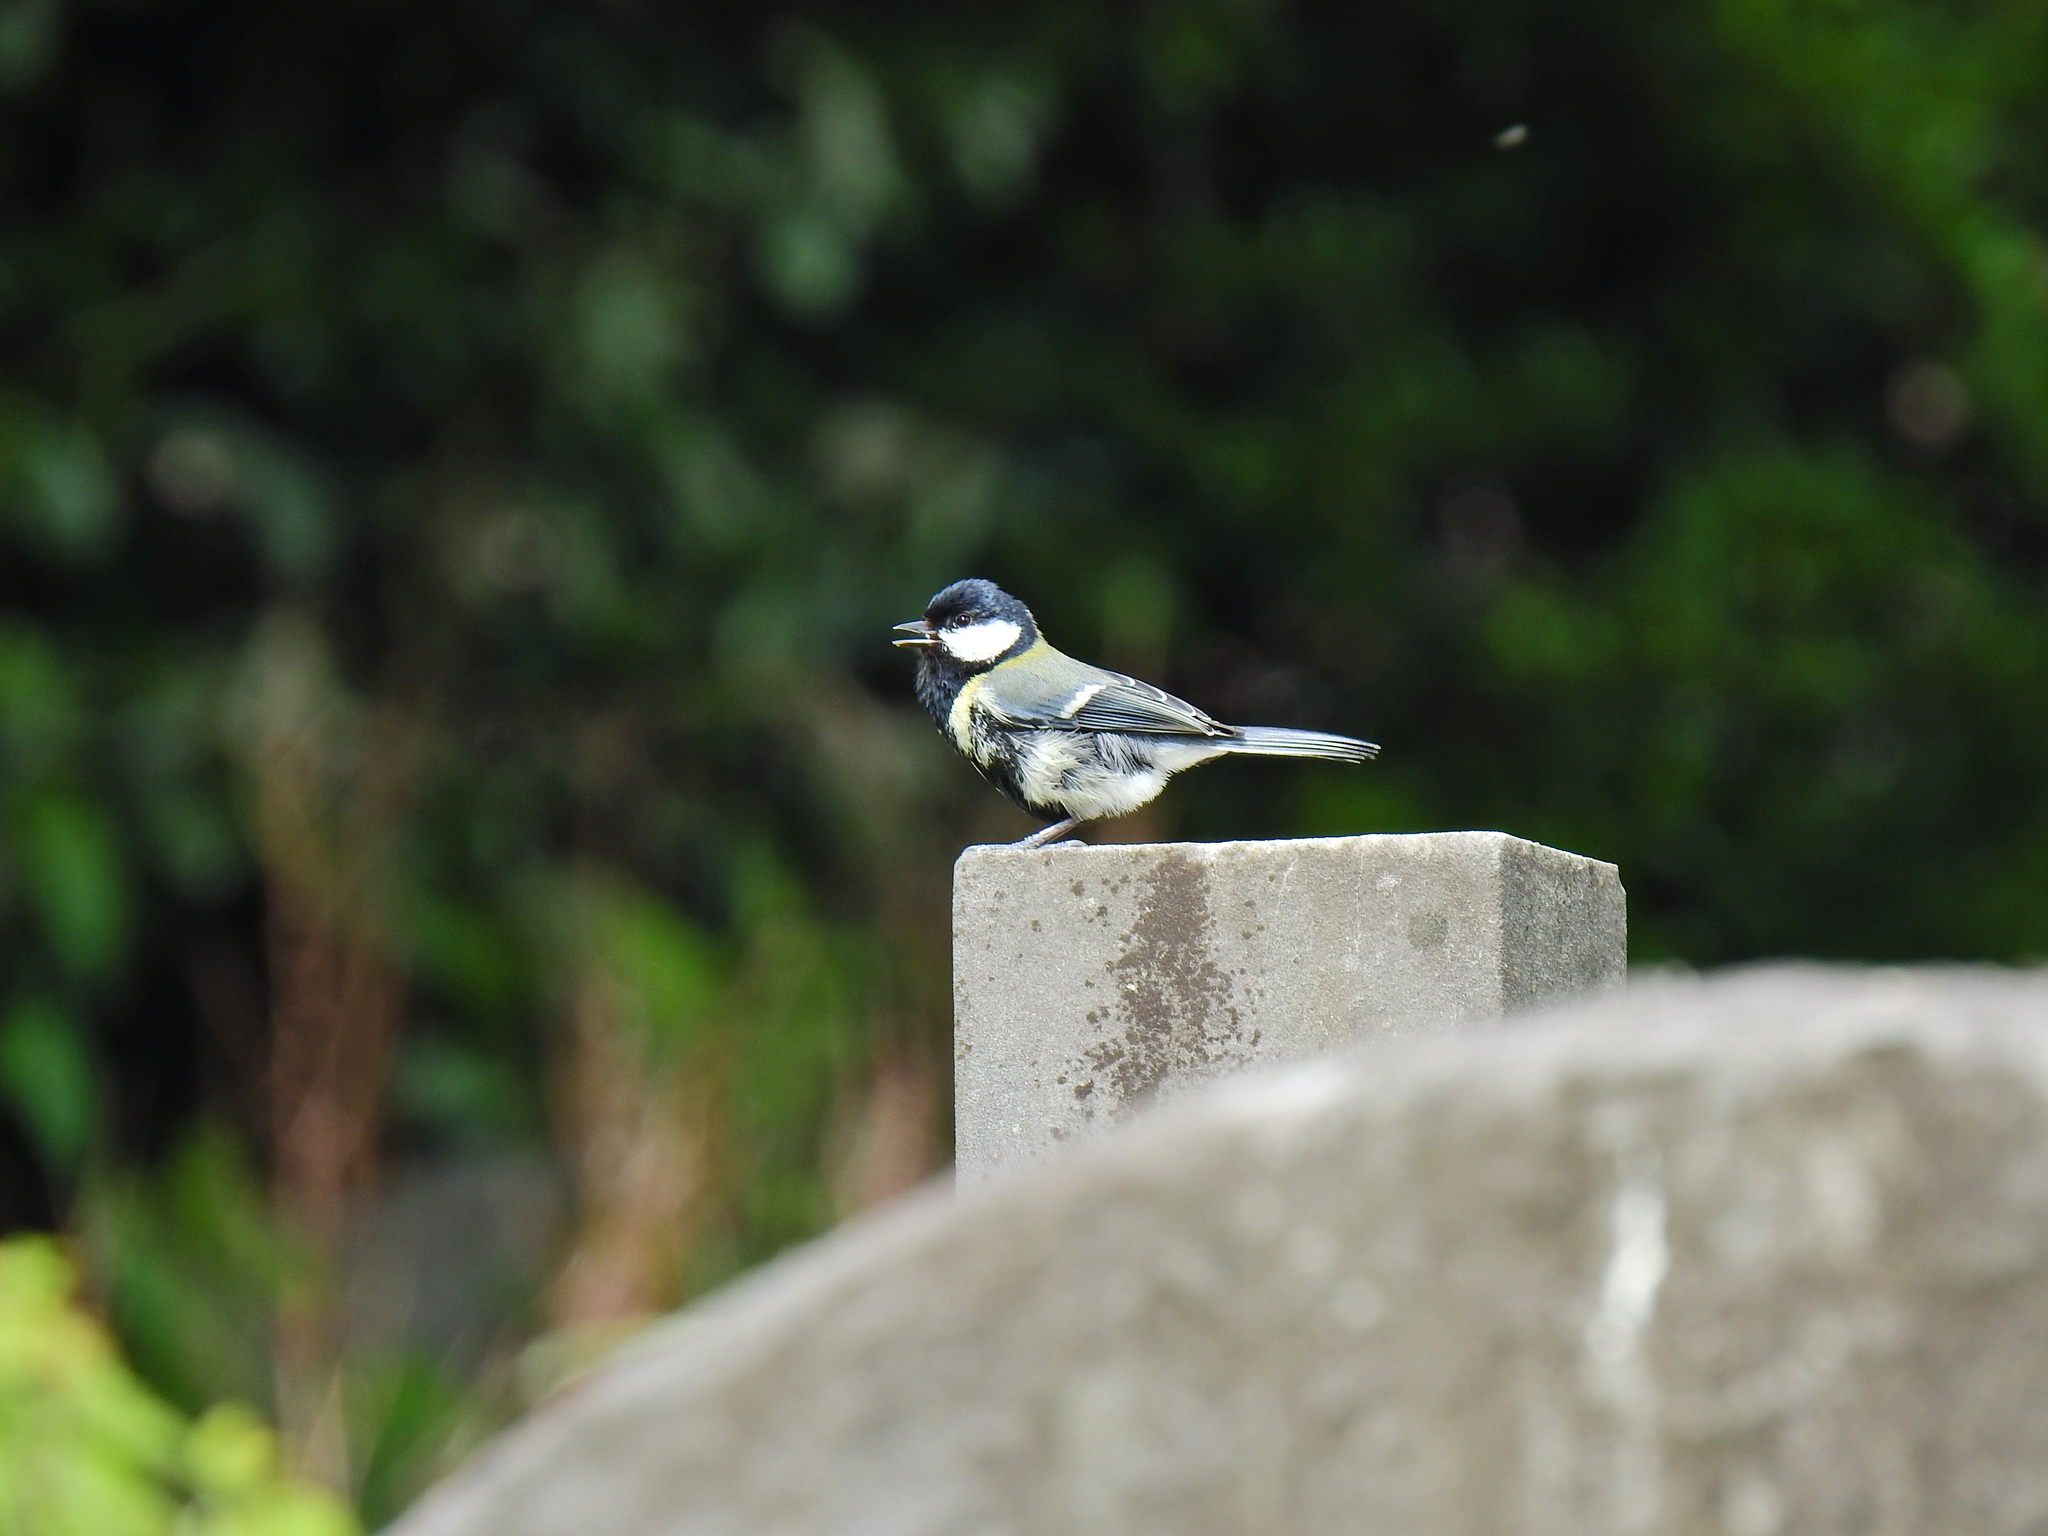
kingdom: Animalia
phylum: Chordata
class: Aves
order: Passeriformes
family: Paridae
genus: Parus
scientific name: Parus major
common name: Great tit
